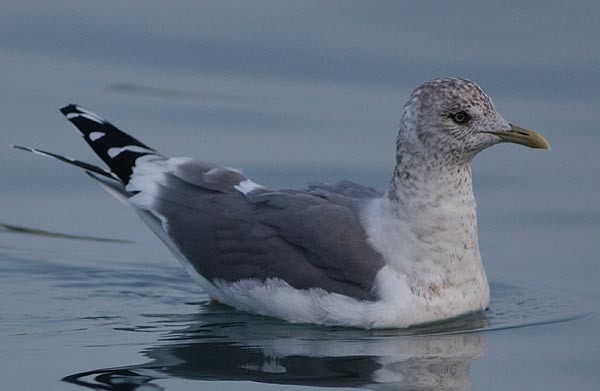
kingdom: Animalia
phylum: Chordata
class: Aves
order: Charadriiformes
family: Laridae
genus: Larus
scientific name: Larus canus
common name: Mew gull
